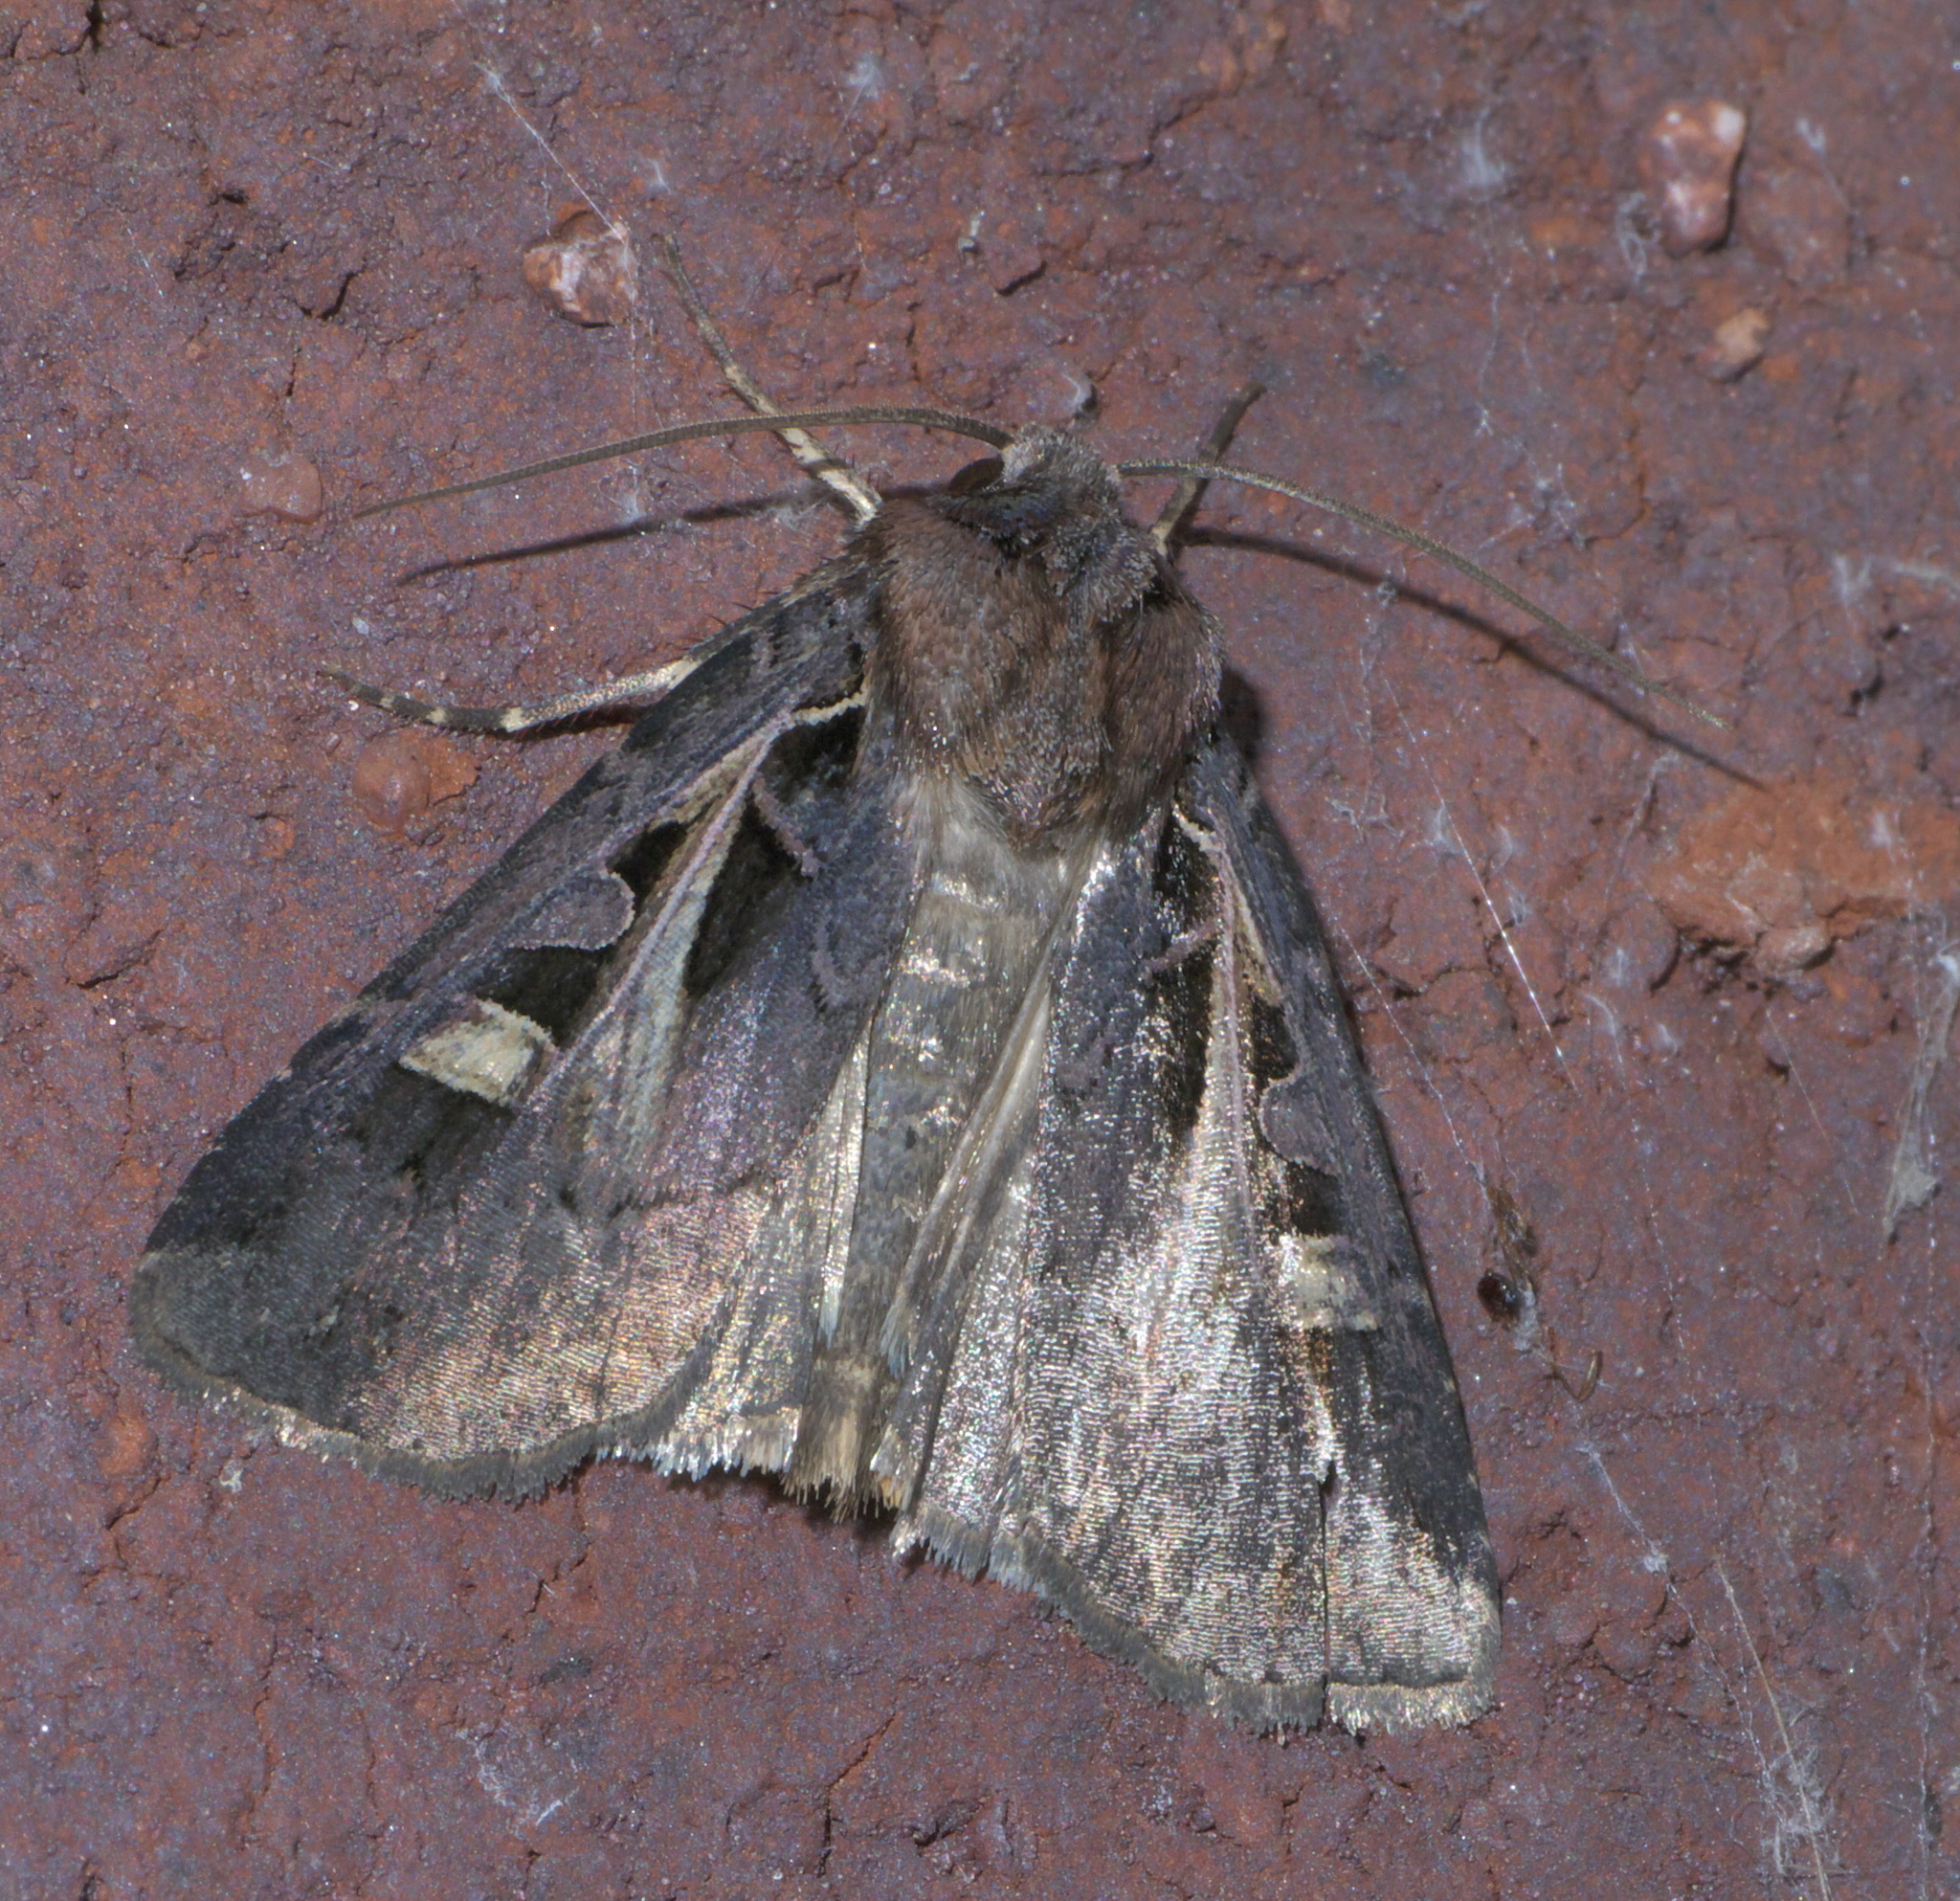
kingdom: Animalia
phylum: Arthropoda
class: Insecta
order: Lepidoptera
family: Noctuidae
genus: Feltia
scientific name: Feltia herilis
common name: Master's dart
